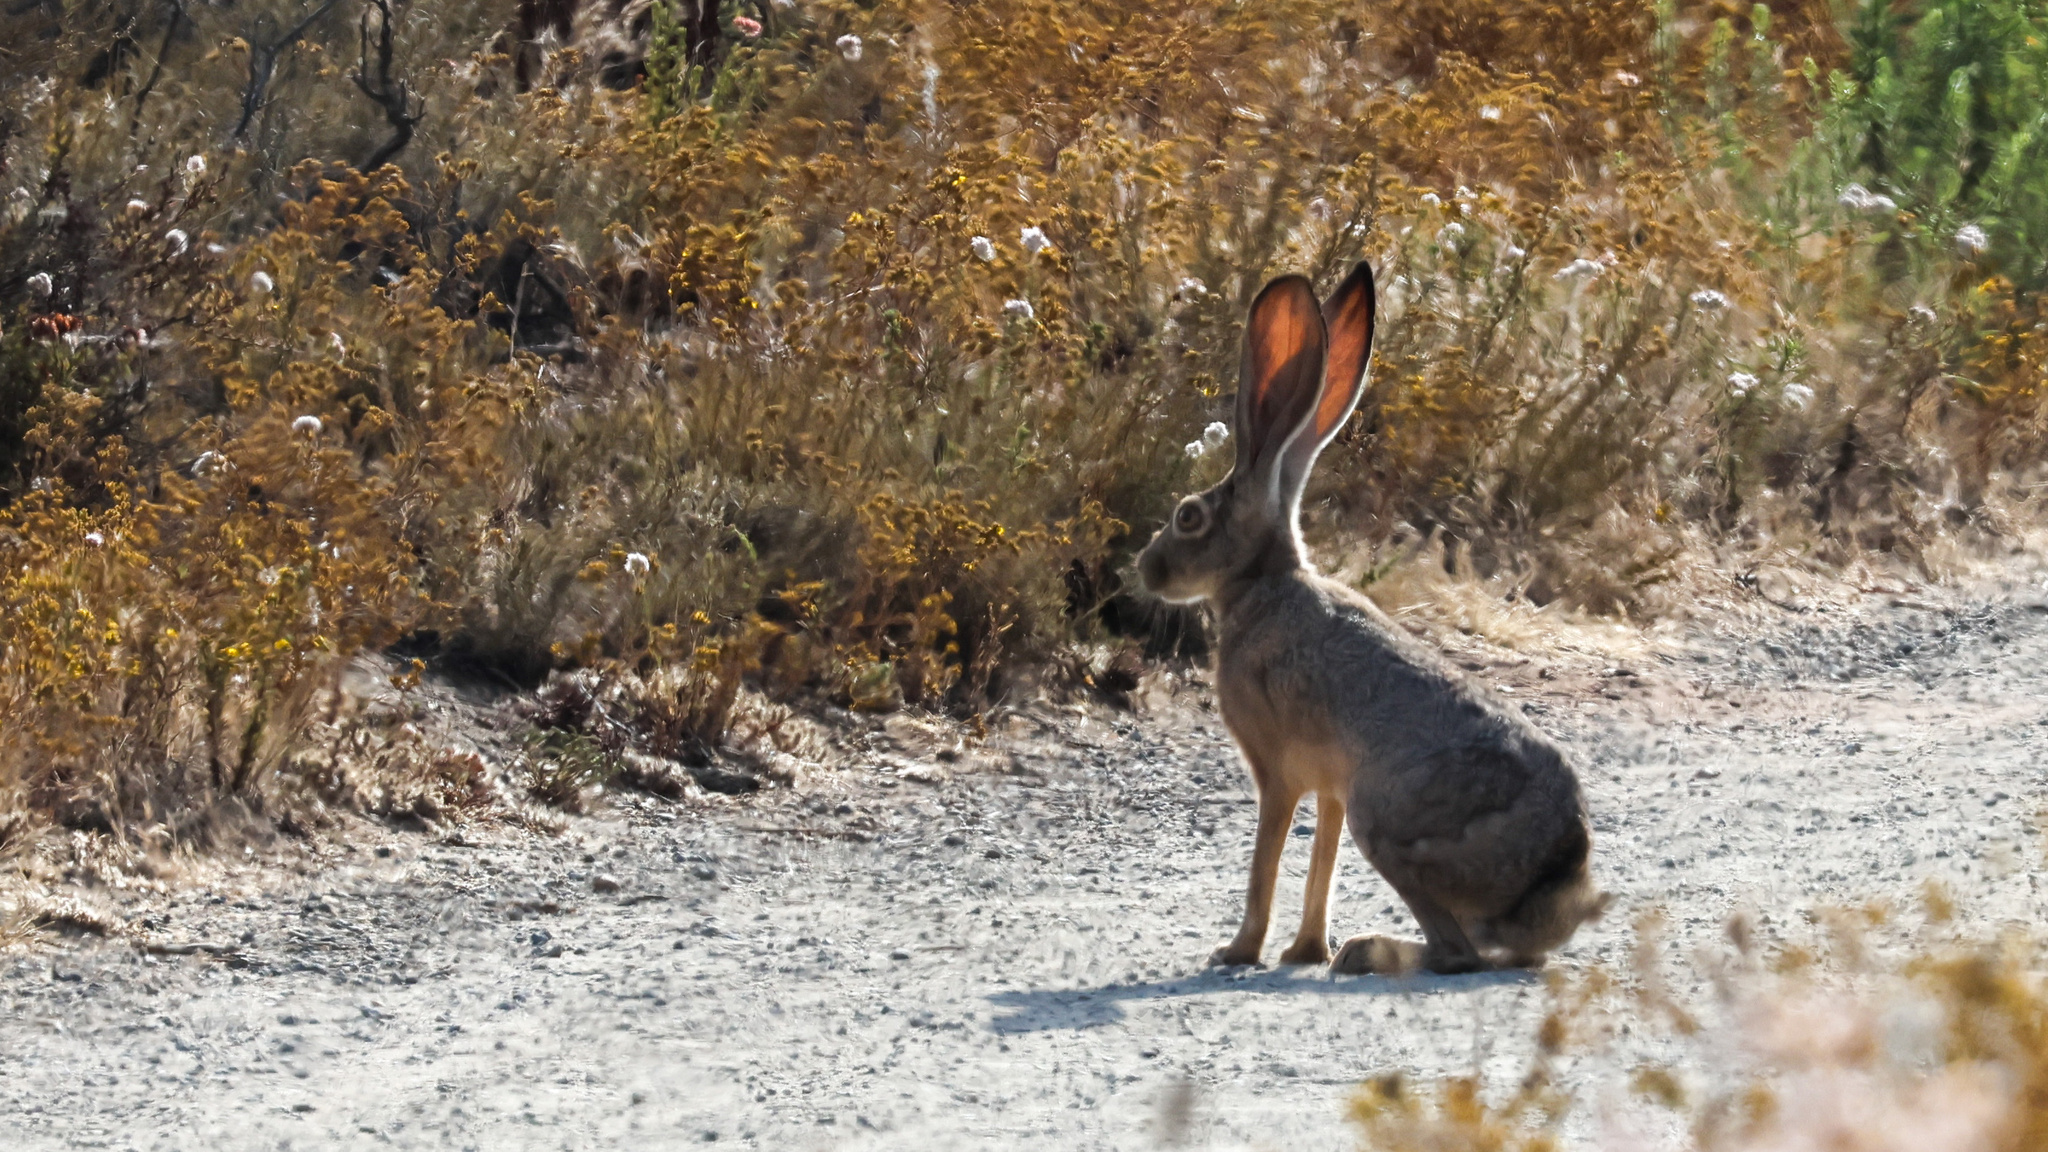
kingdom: Animalia
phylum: Chordata
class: Mammalia
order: Lagomorpha
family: Leporidae
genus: Lepus
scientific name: Lepus californicus
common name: Black-tailed jackrabbit
